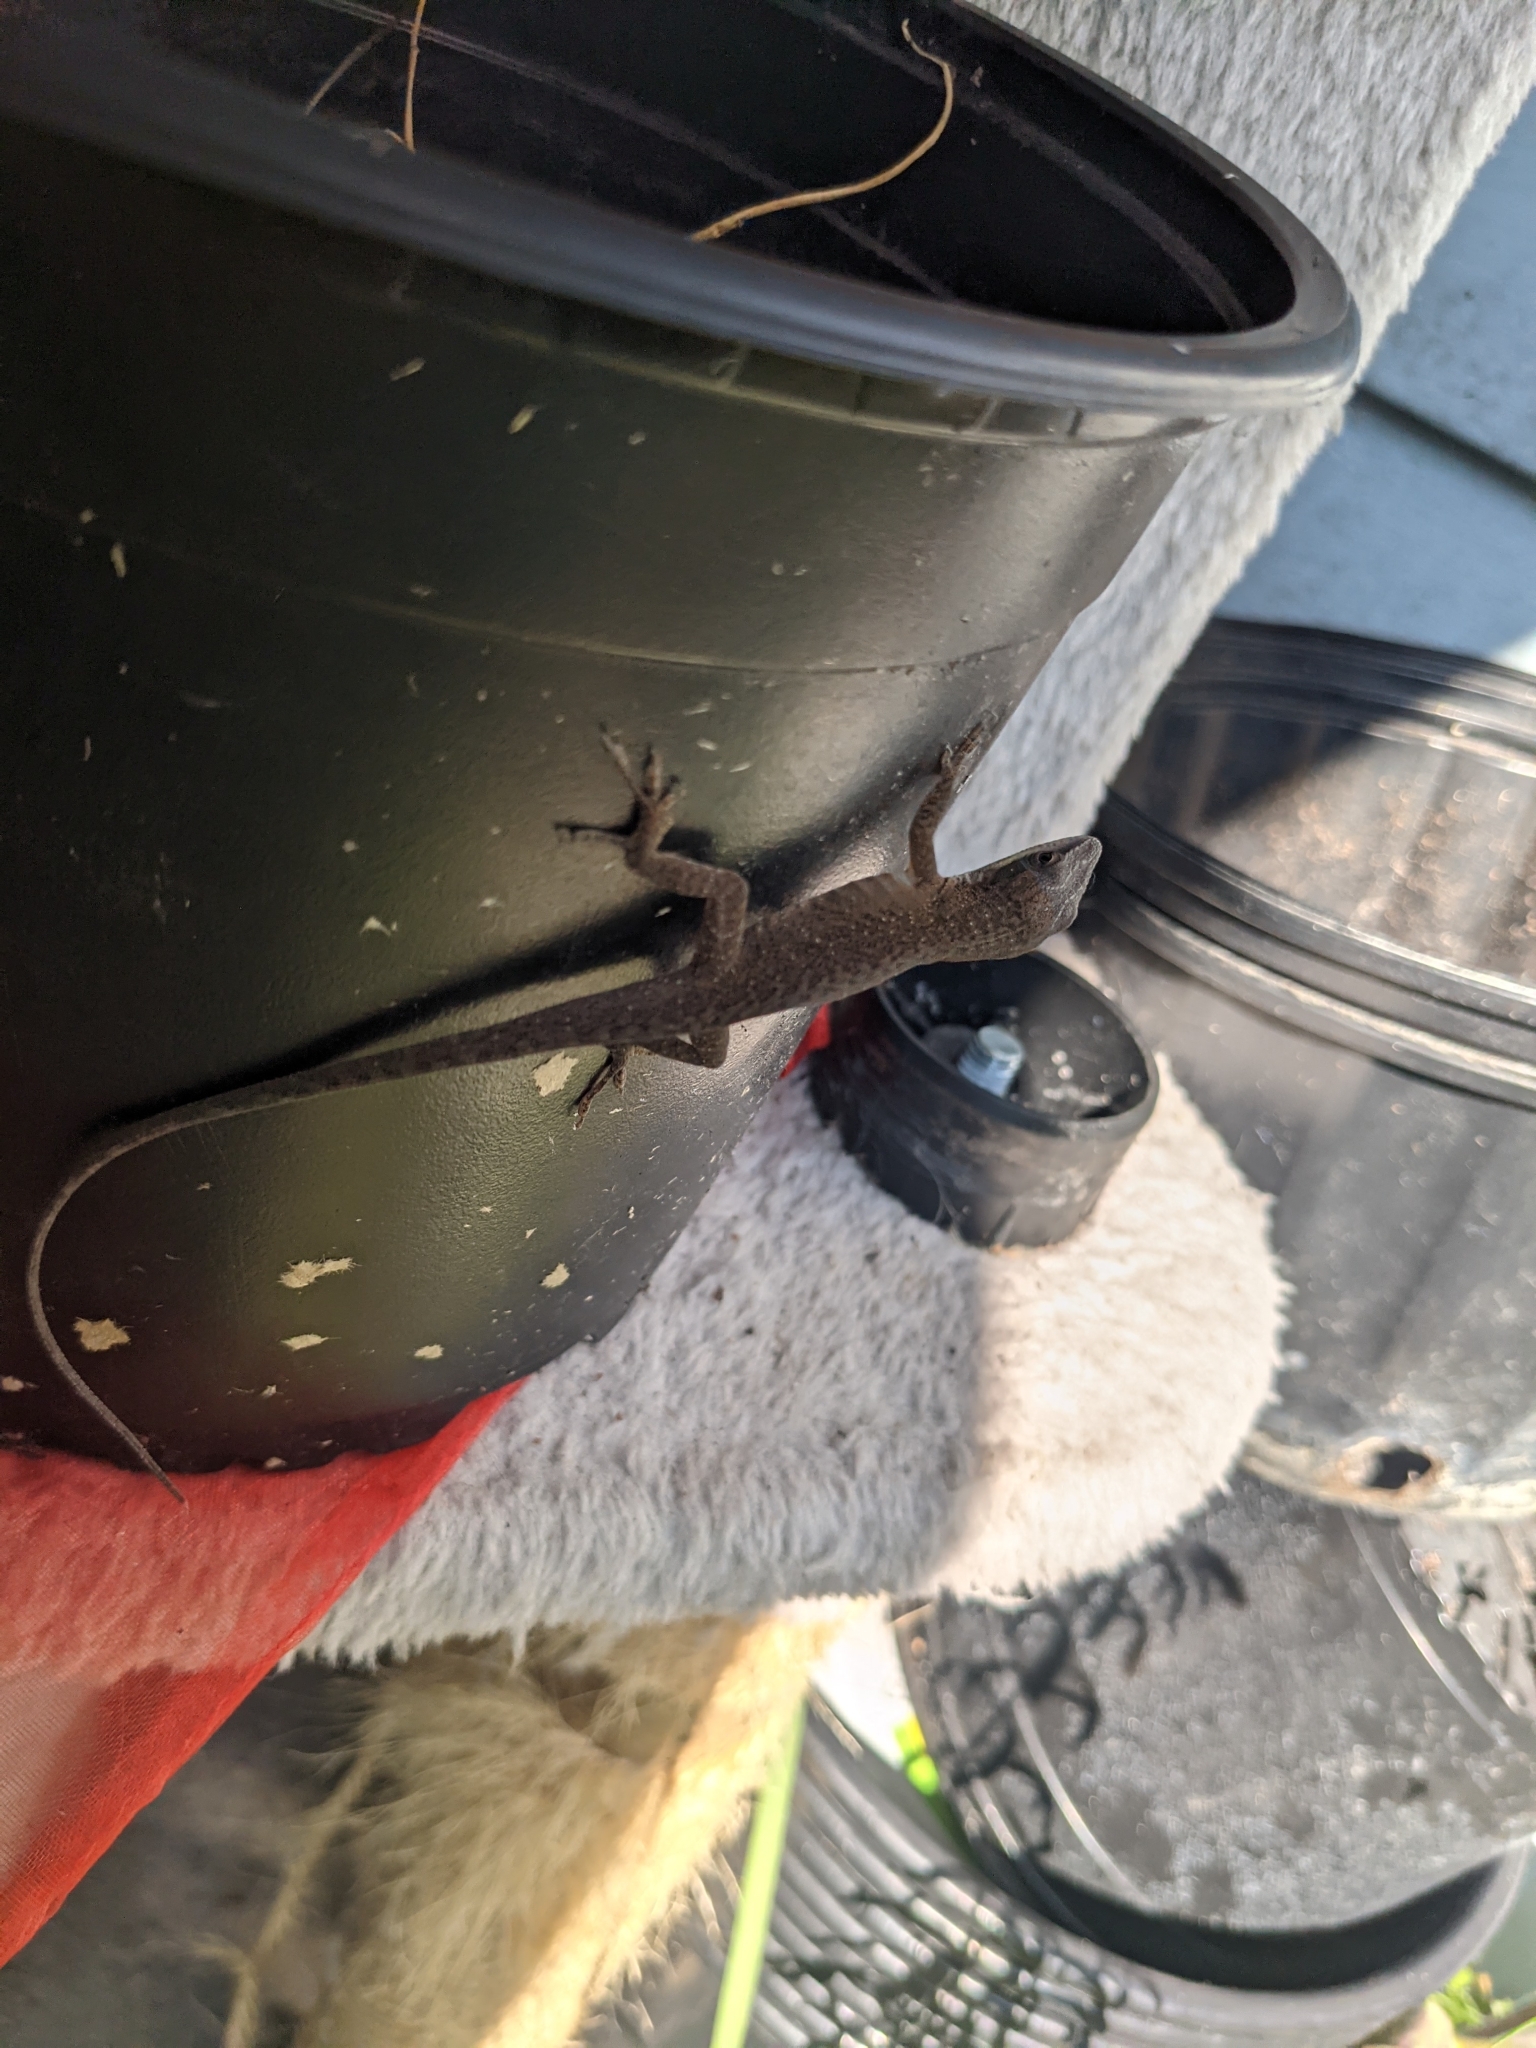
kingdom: Animalia
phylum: Chordata
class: Squamata
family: Dactyloidae
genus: Anolis
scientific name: Anolis carolinensis
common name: Green anole
